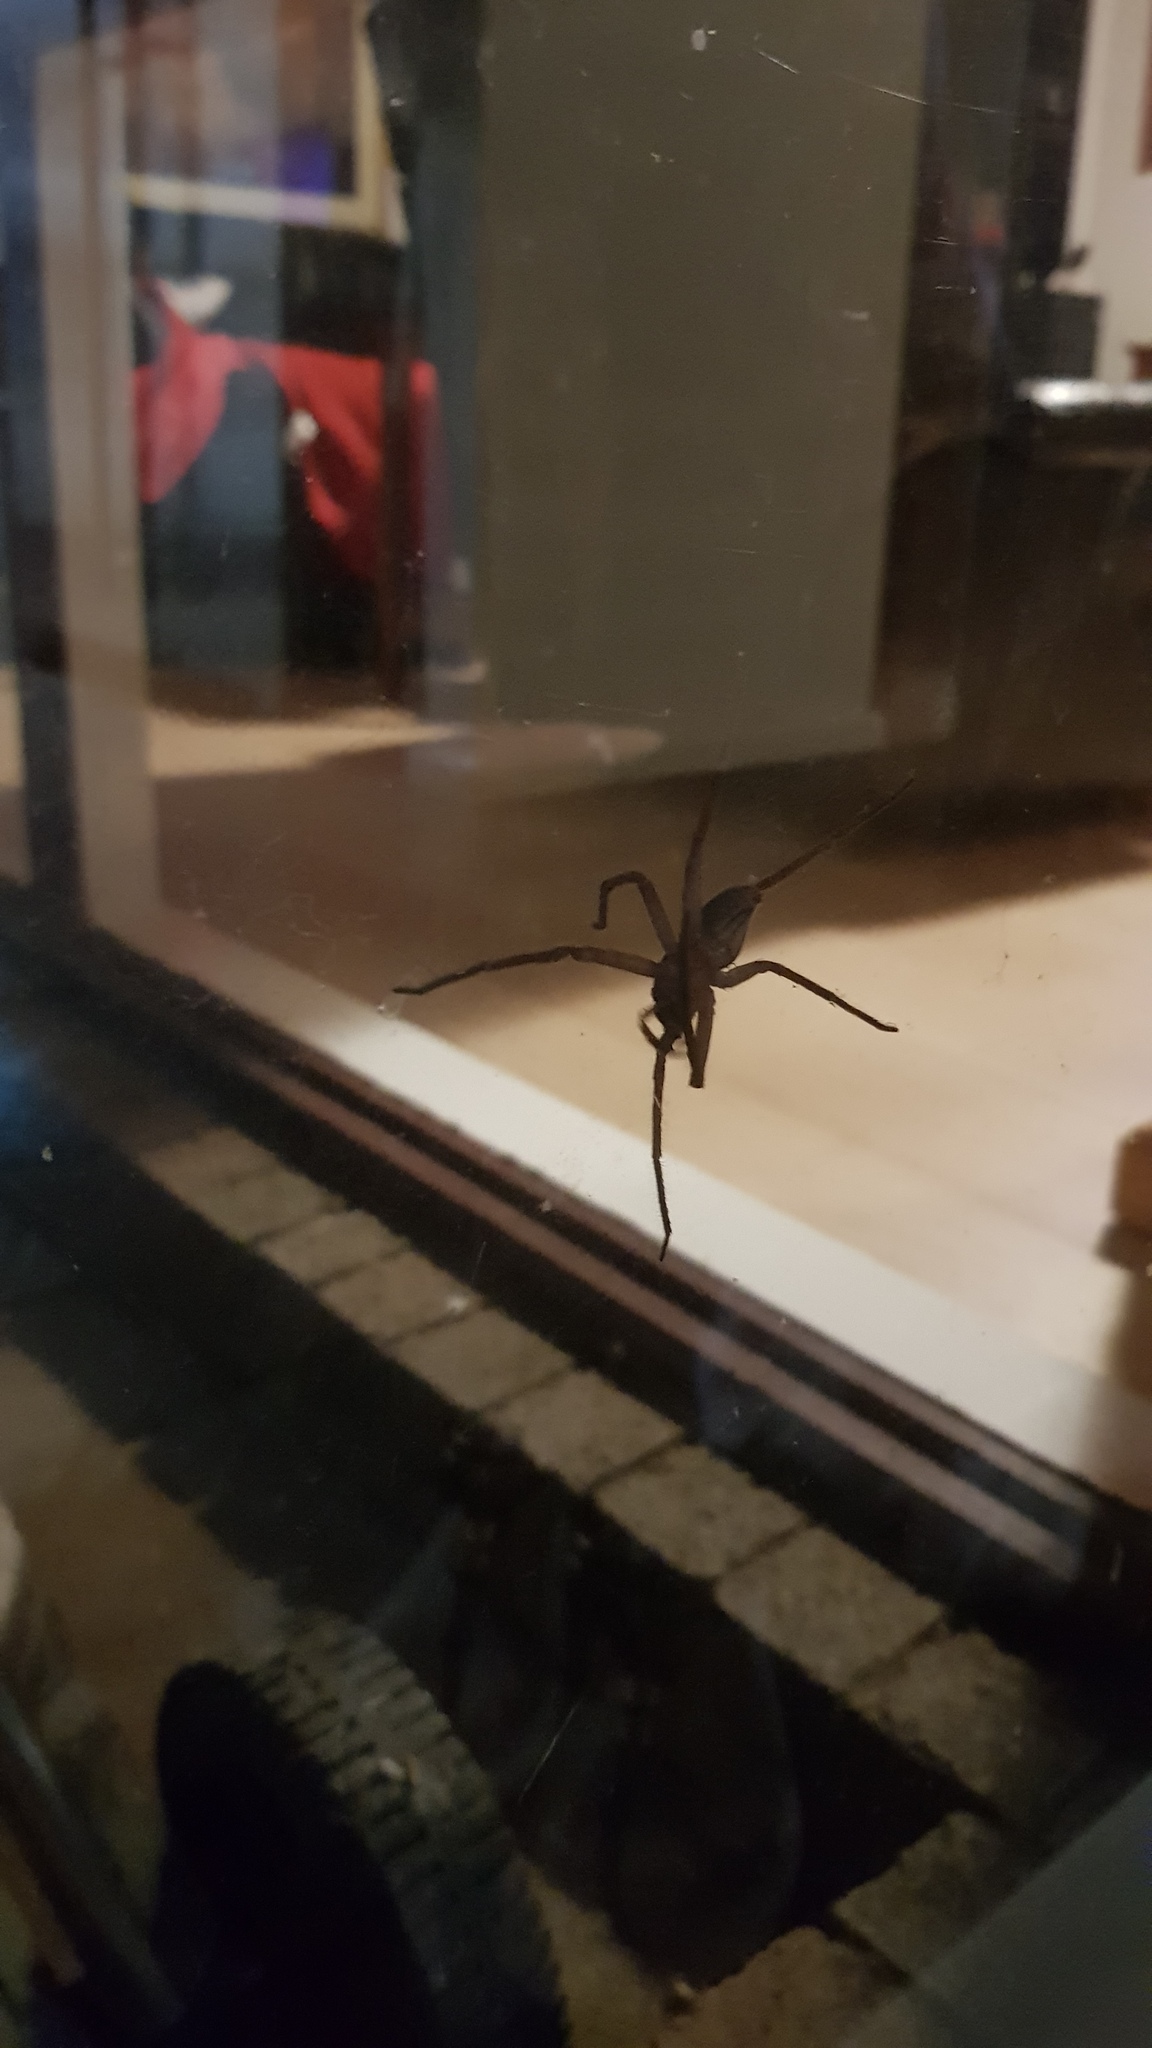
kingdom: Animalia
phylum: Arthropoda
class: Arachnida
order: Araneae
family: Sparassidae
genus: Heteropoda
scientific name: Heteropoda jugulans
